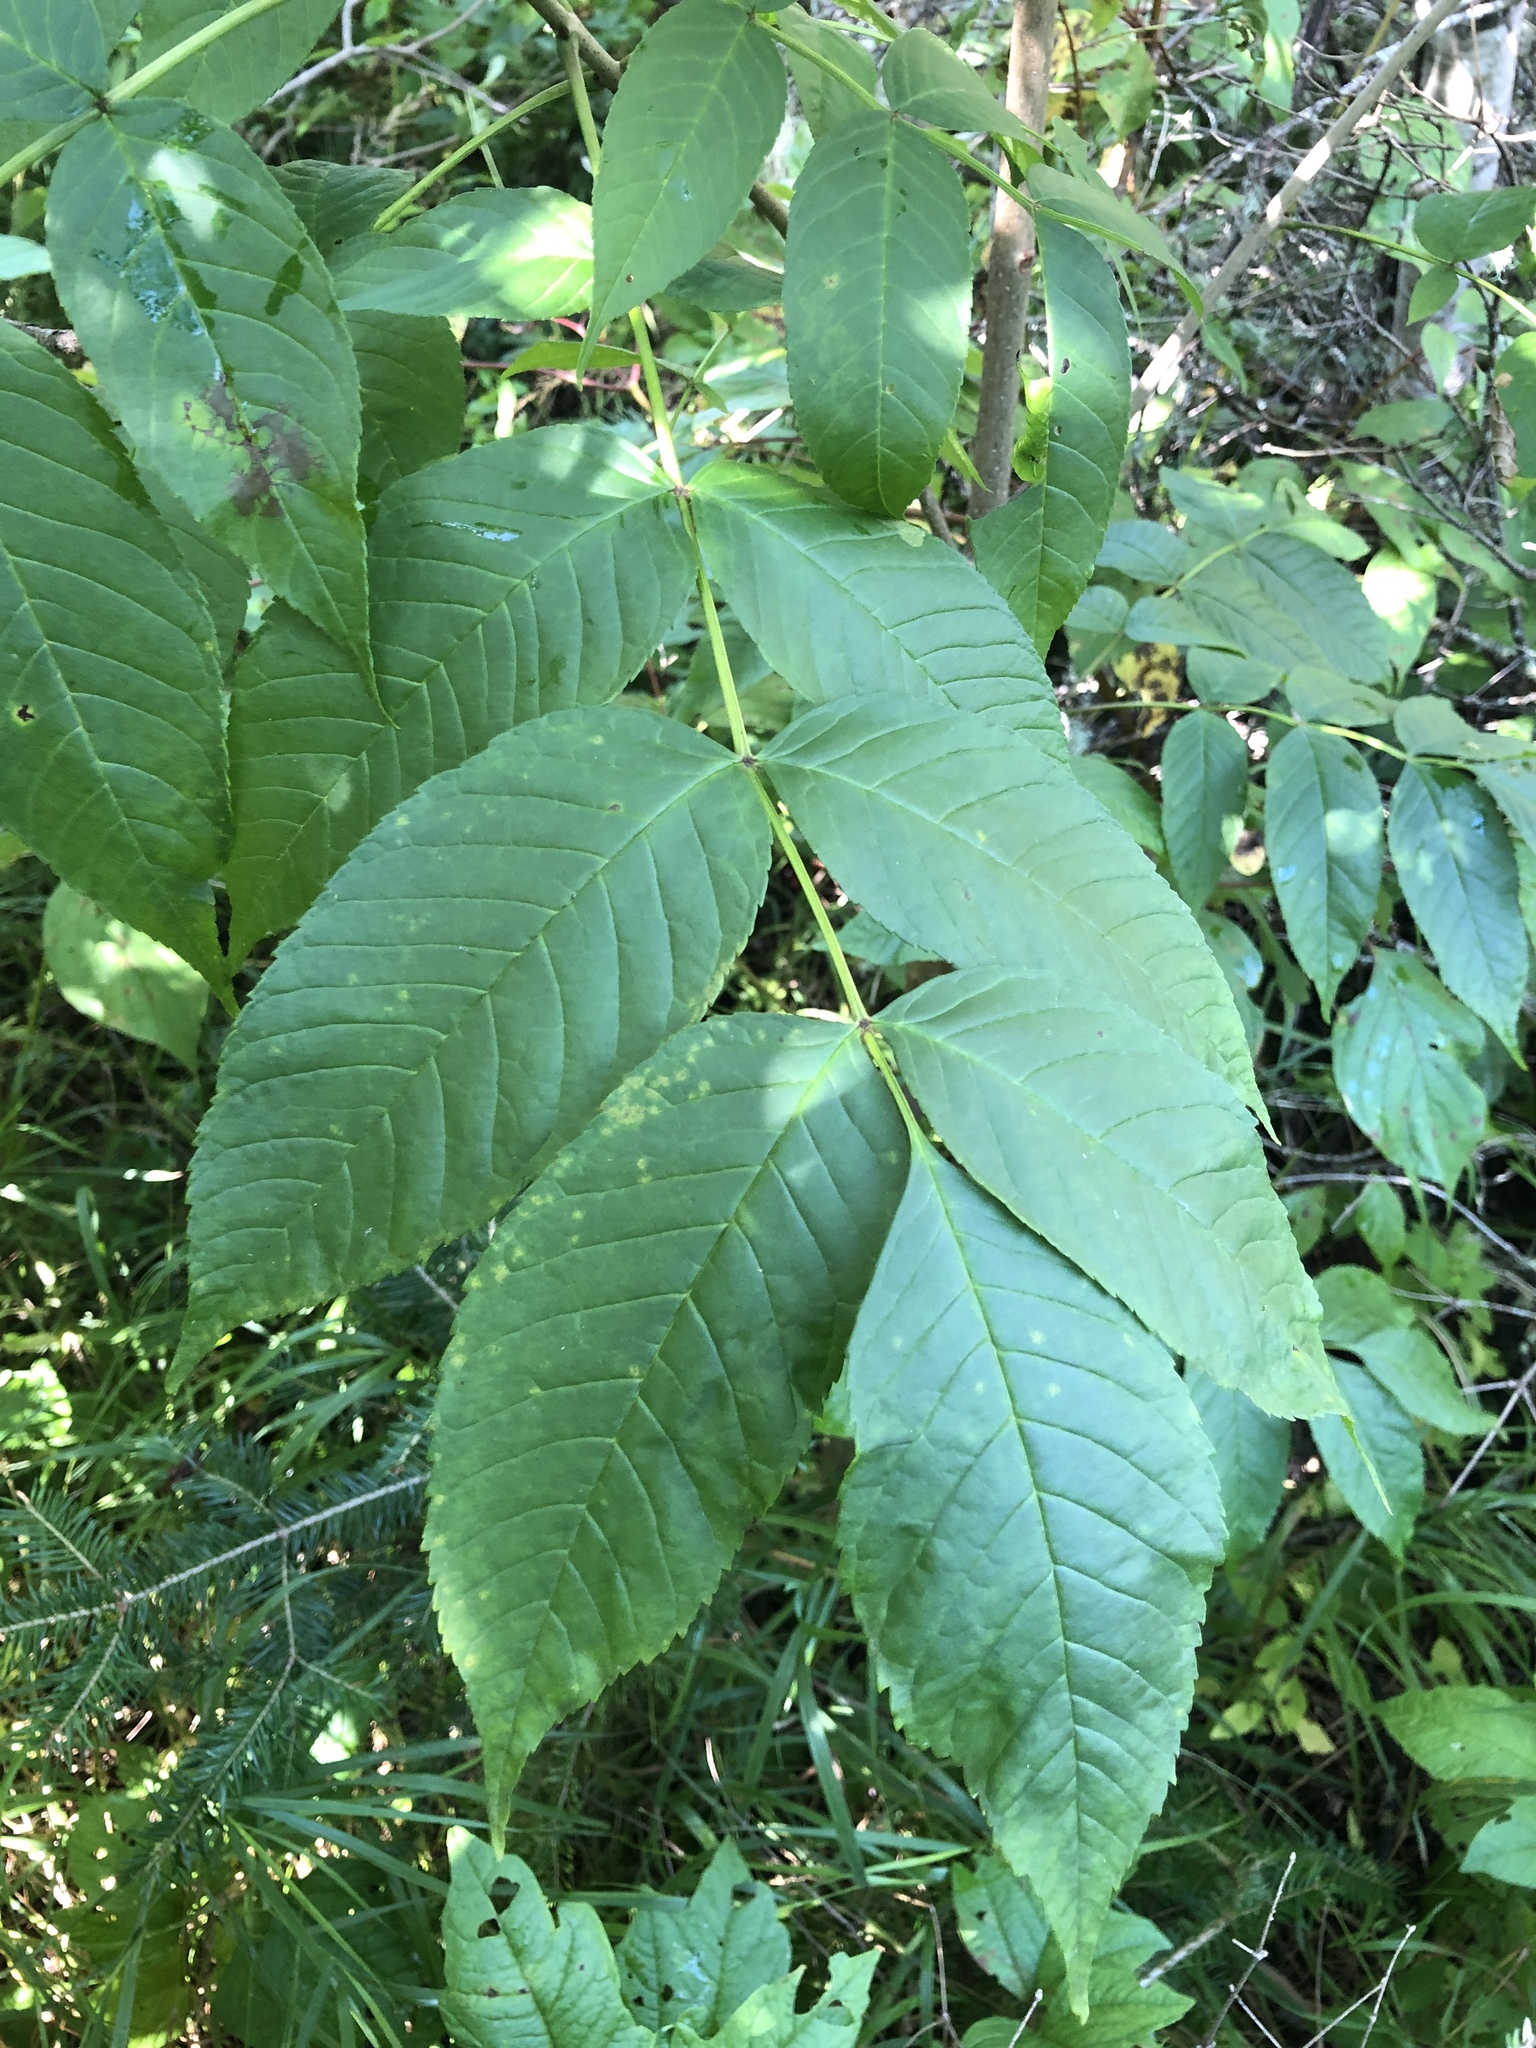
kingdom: Plantae
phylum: Tracheophyta
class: Magnoliopsida
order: Lamiales
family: Oleaceae
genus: Fraxinus
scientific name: Fraxinus nigra
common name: Black ash
